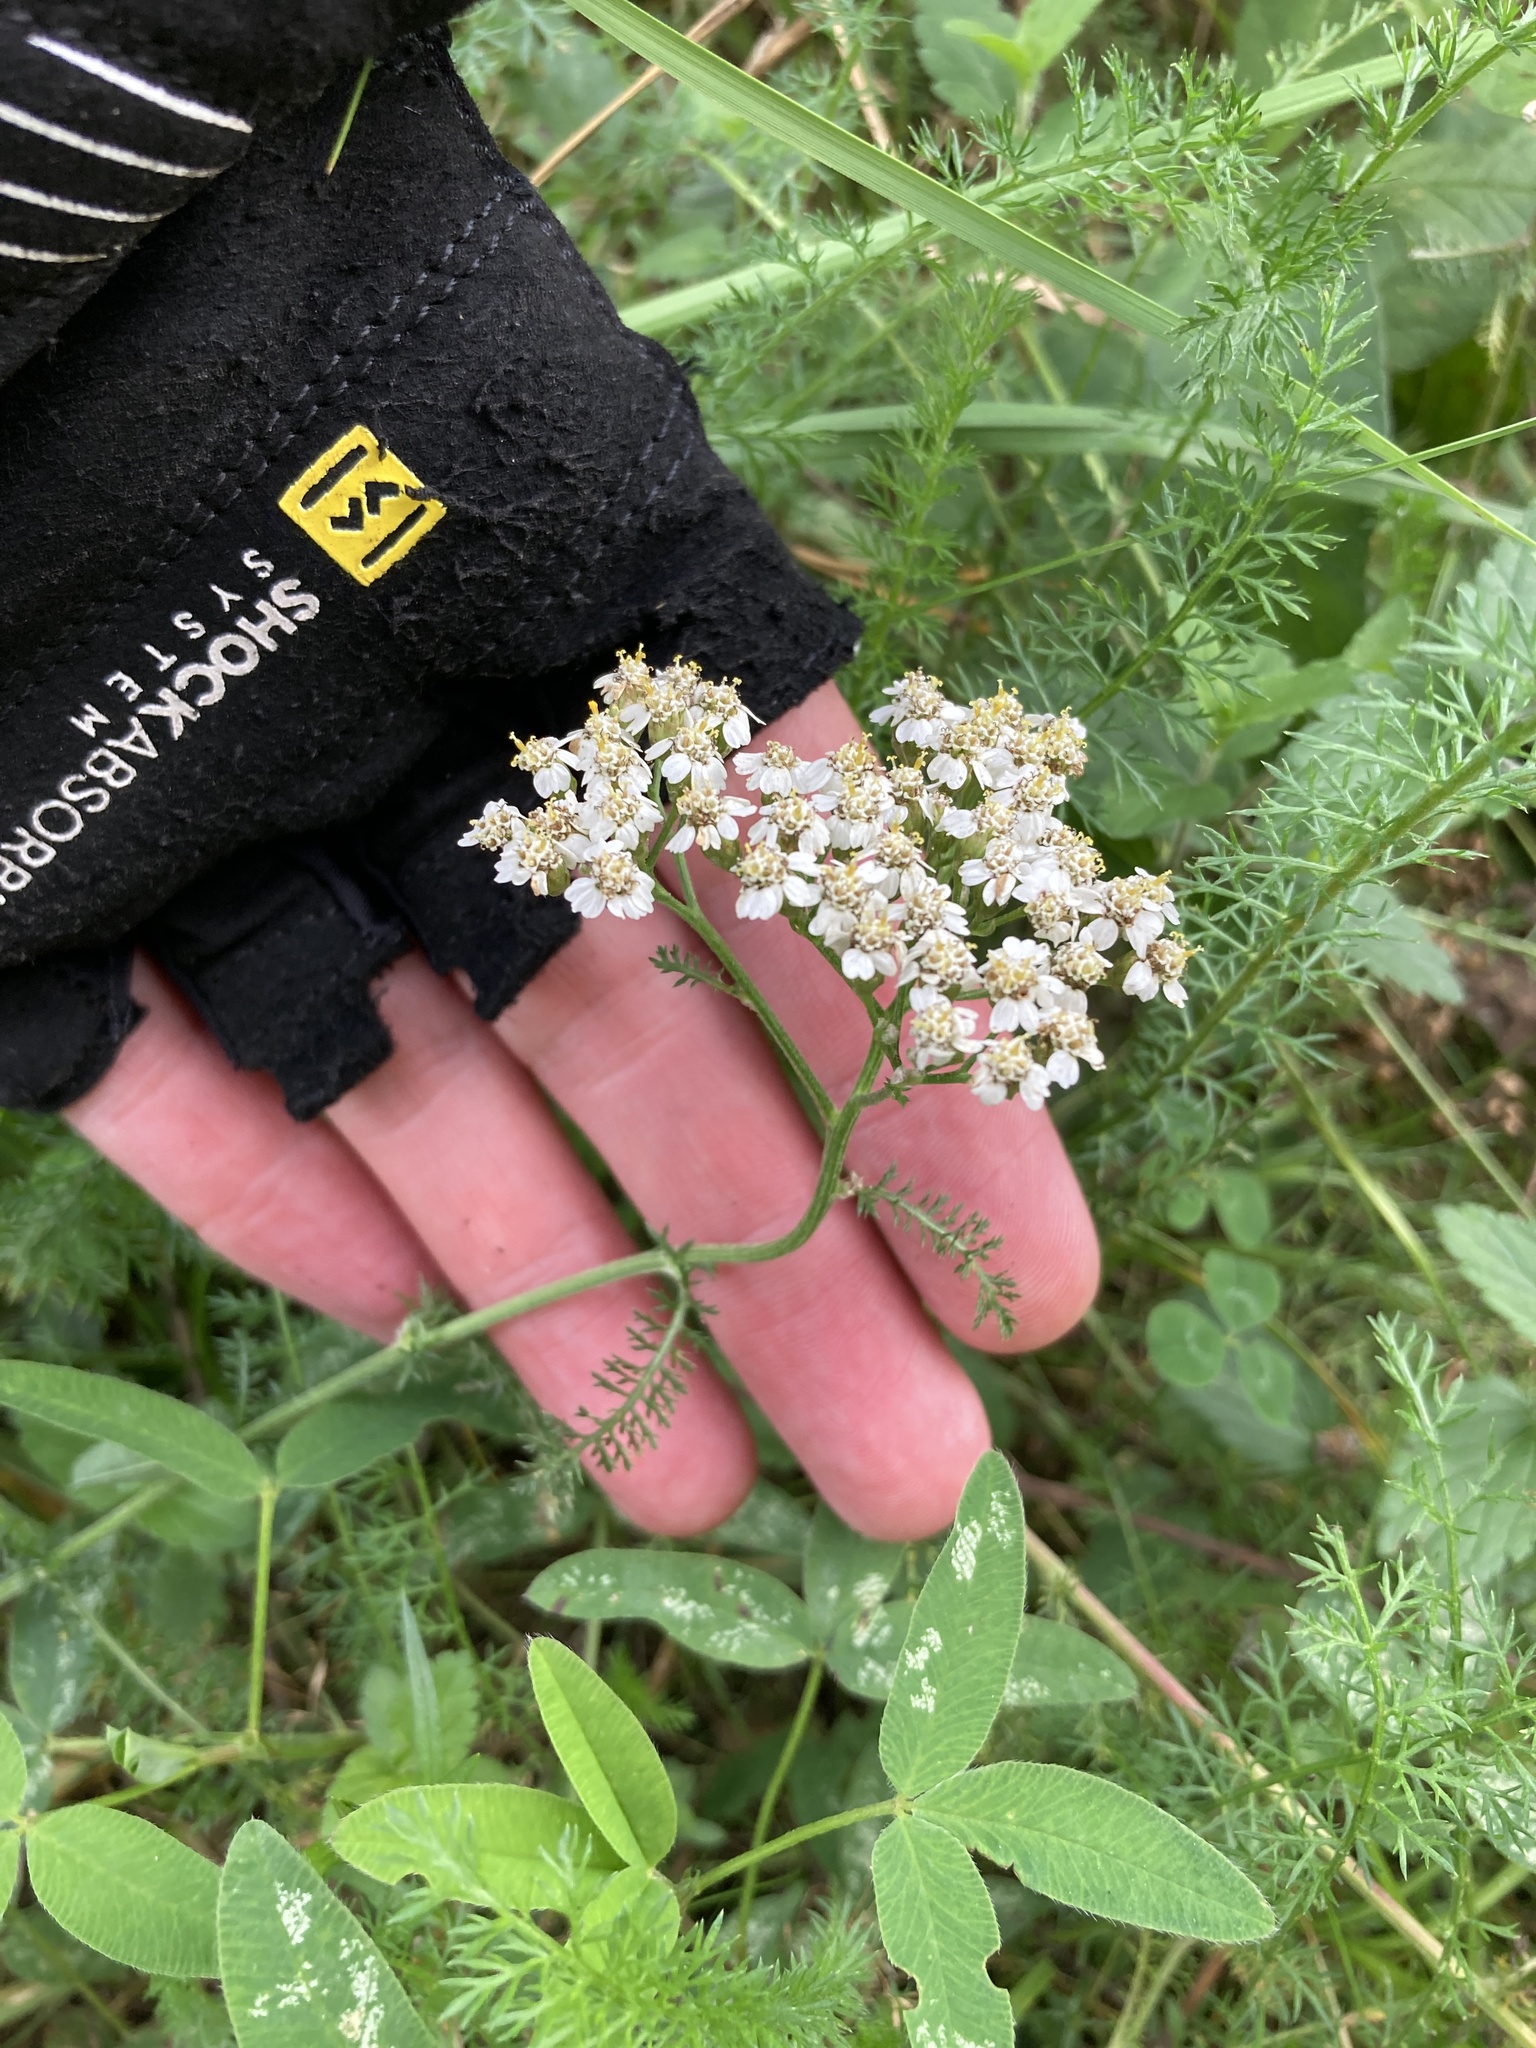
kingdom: Plantae
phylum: Tracheophyta
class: Magnoliopsida
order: Asterales
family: Asteraceae
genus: Achillea
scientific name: Achillea millefolium
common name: Yarrow
